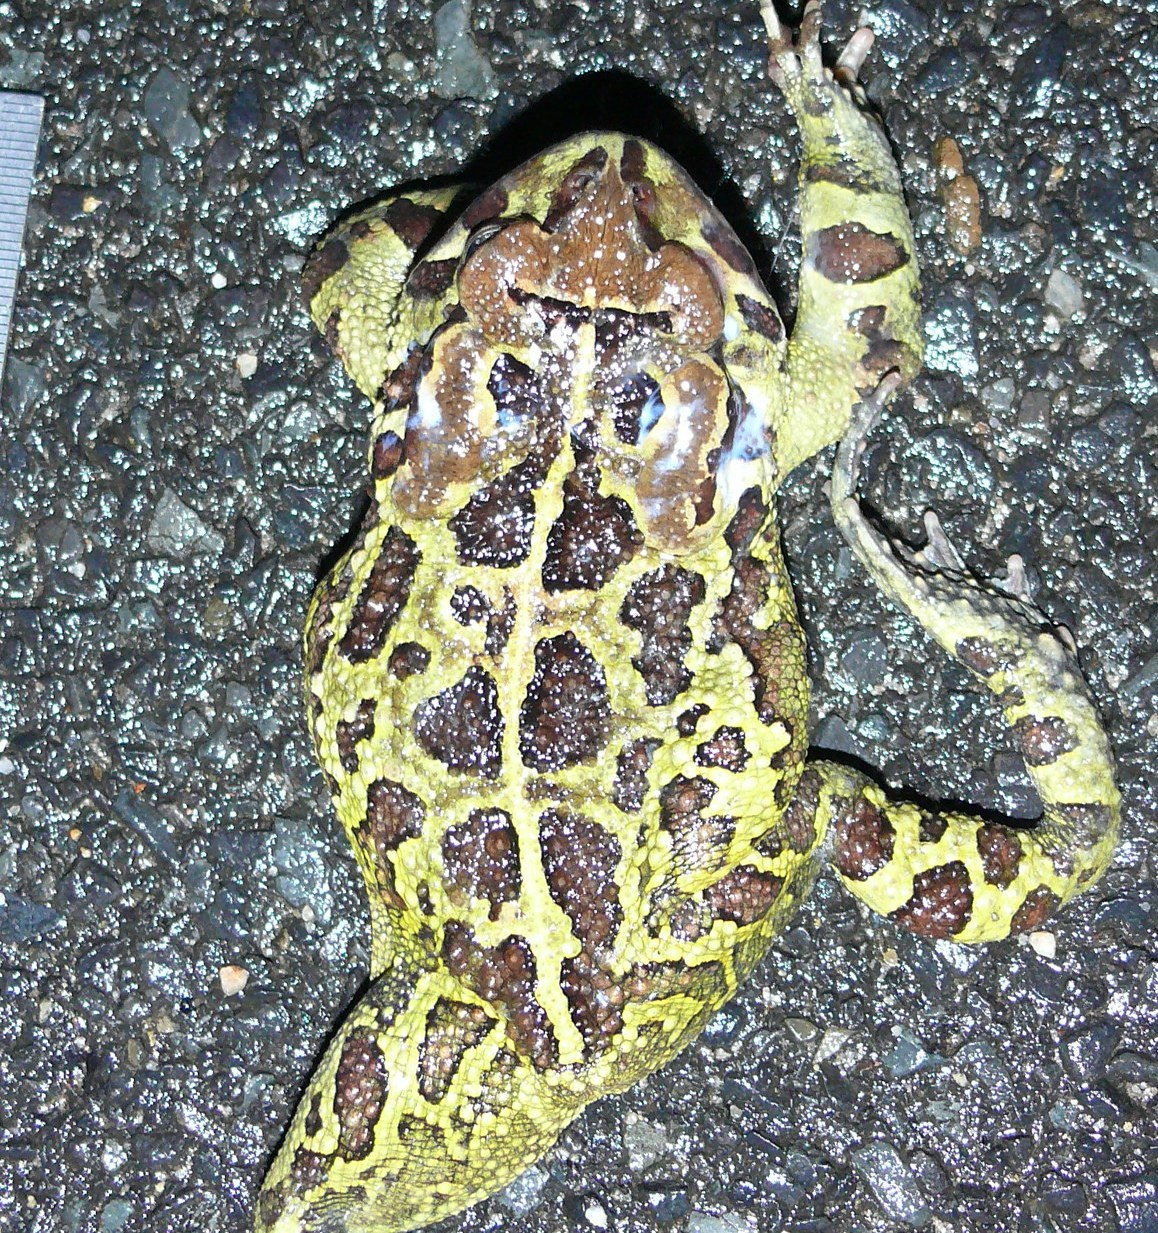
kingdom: Animalia
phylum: Chordata
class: Amphibia
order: Anura
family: Bufonidae
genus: Sclerophrys
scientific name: Sclerophrys pantherina
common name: Panther toad
